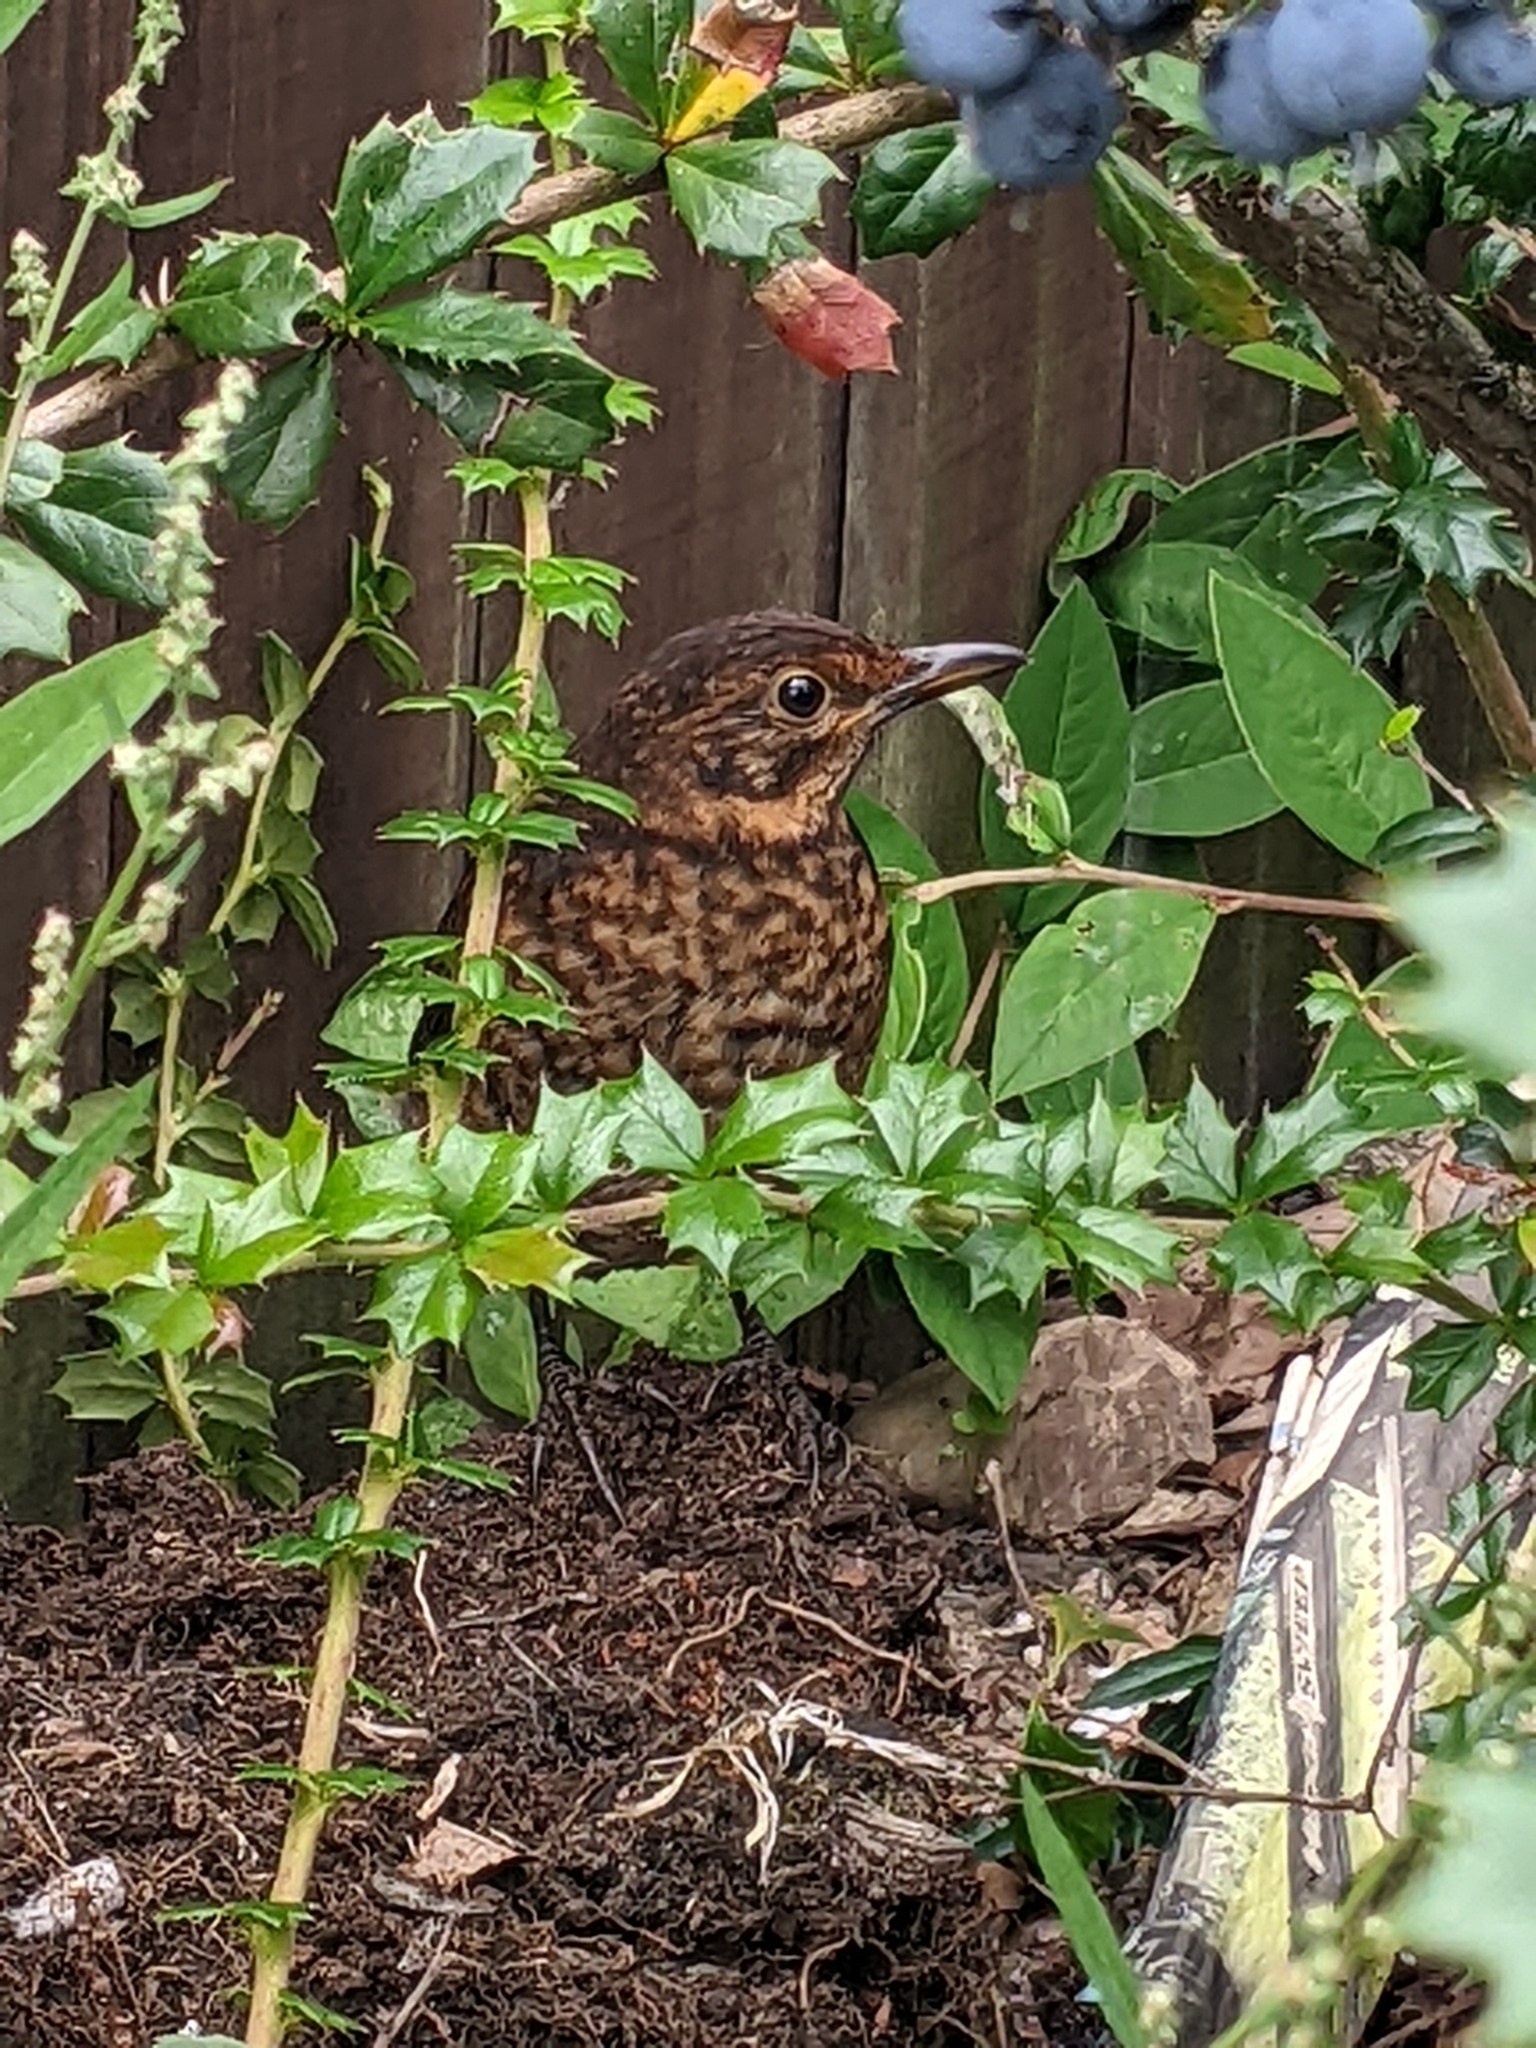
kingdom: Animalia
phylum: Chordata
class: Aves
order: Passeriformes
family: Turdidae
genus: Turdus
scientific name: Turdus merula
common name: Common blackbird
